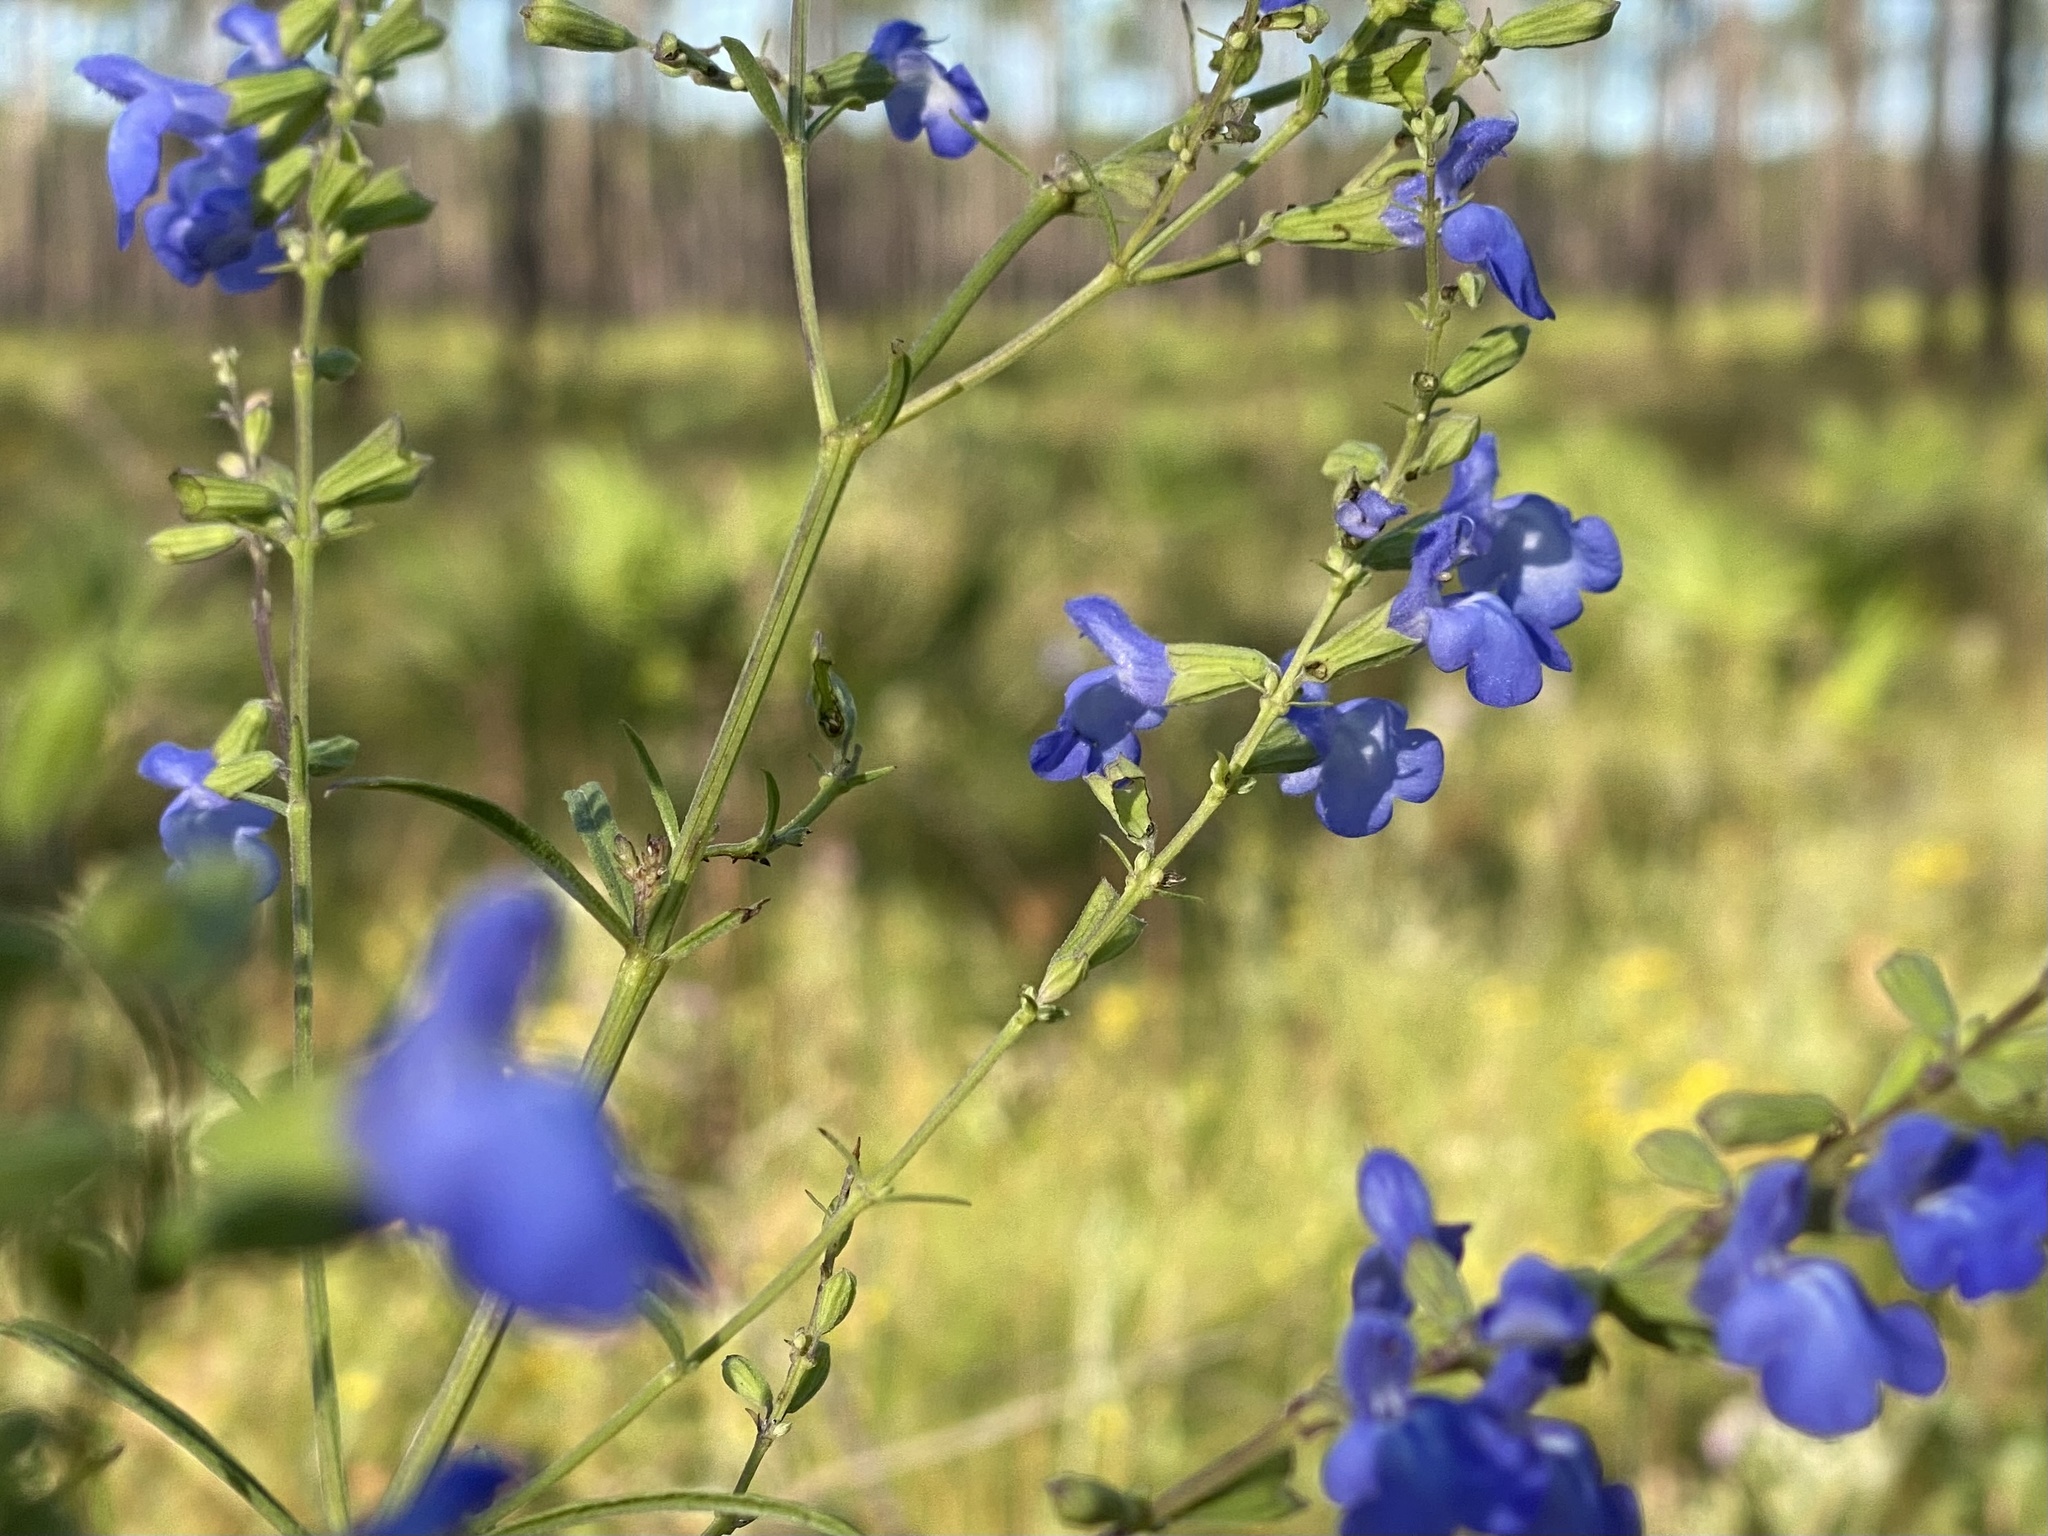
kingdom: Plantae
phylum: Tracheophyta
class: Magnoliopsida
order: Lamiales
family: Lamiaceae
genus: Salvia
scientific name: Salvia azurea
